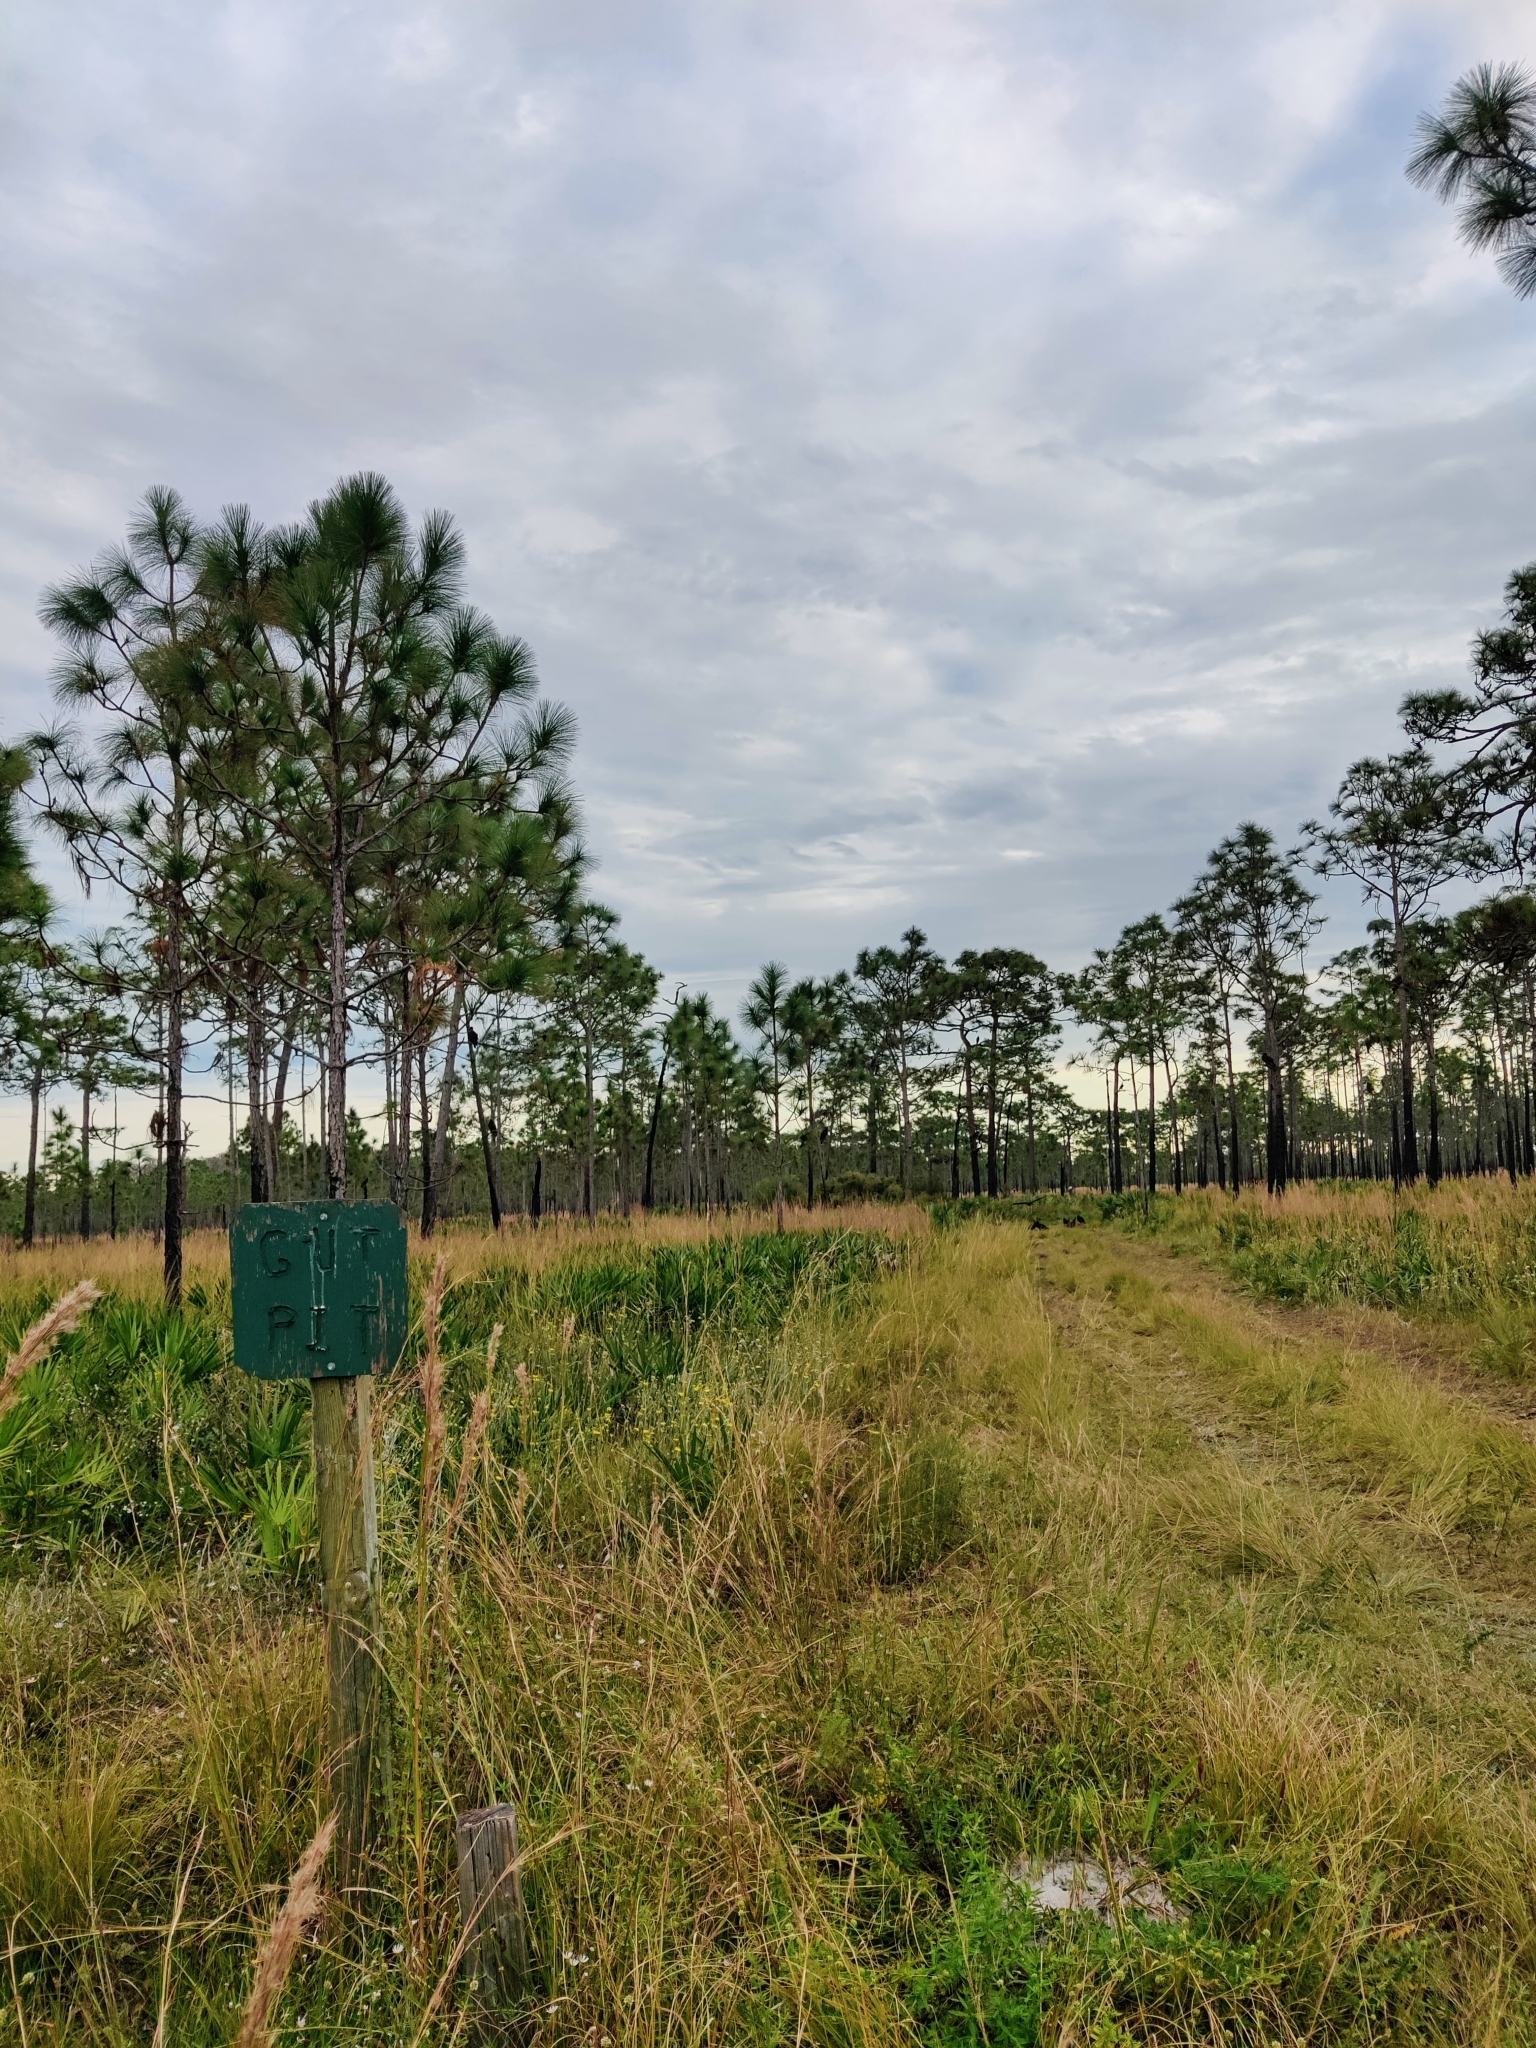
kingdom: Plantae
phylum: Tracheophyta
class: Pinopsida
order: Pinales
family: Pinaceae
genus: Pinus
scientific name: Pinus palustris
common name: Longleaf pine
